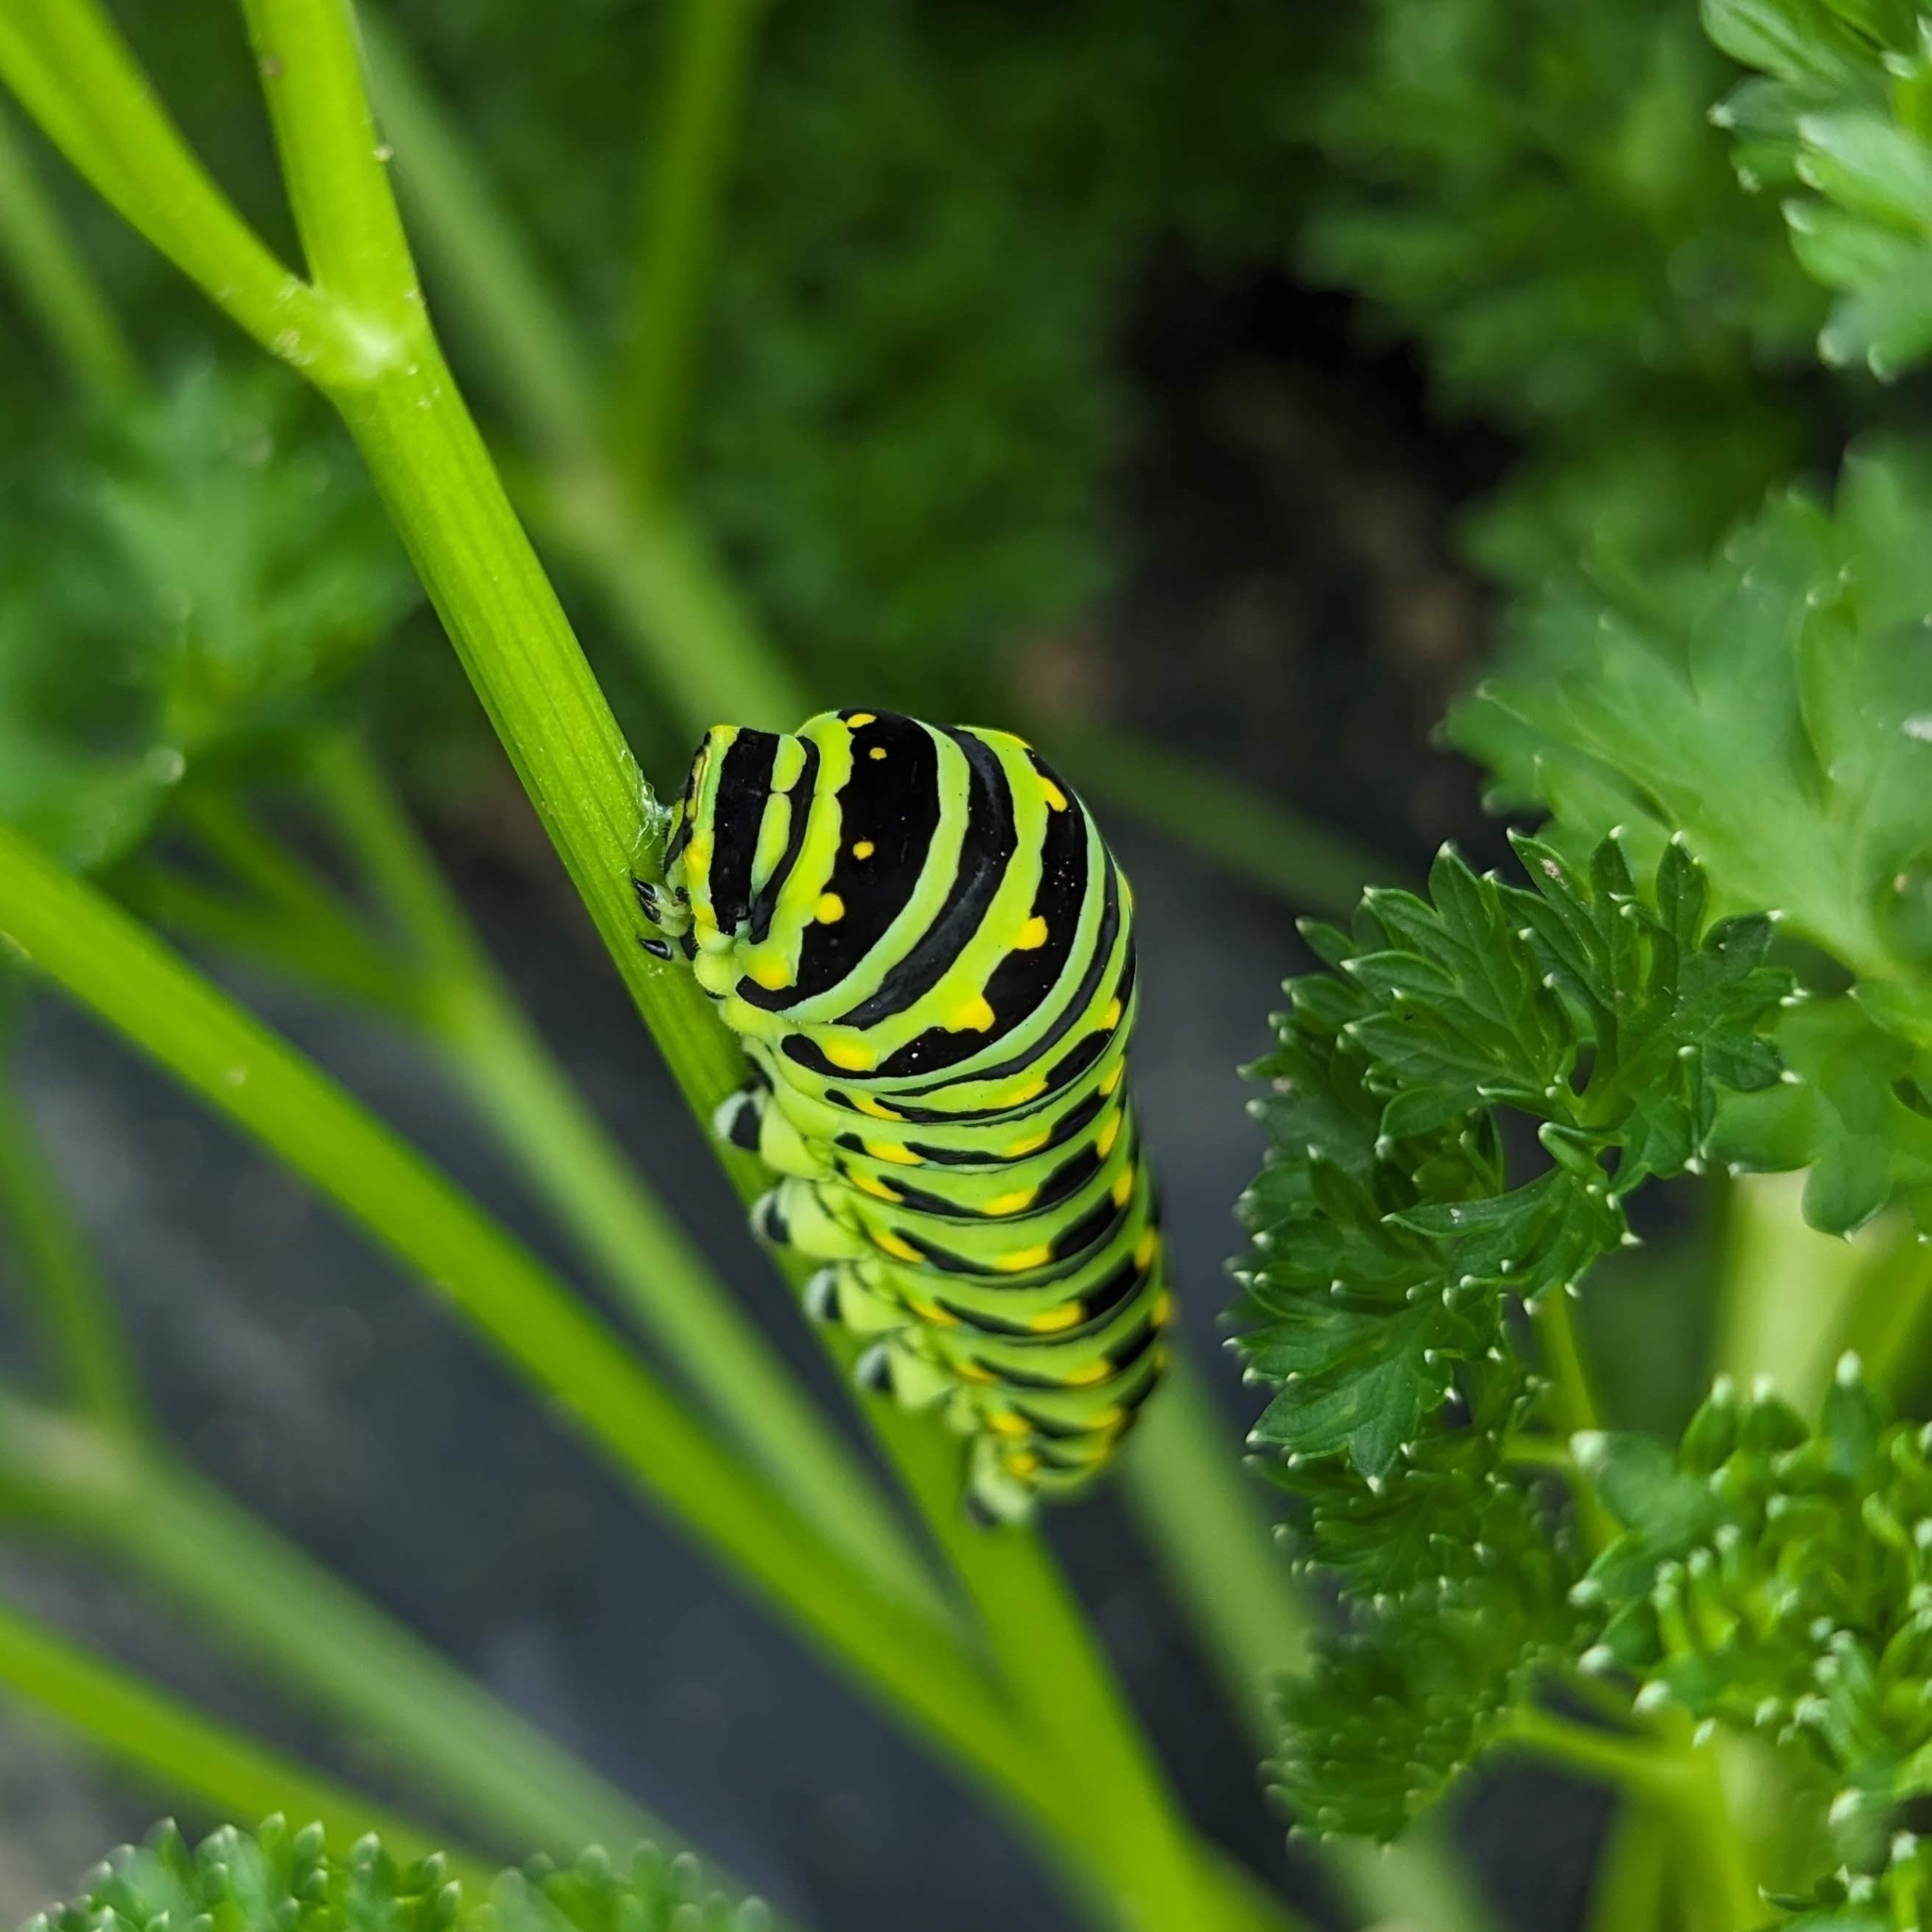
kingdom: Animalia
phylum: Arthropoda
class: Insecta
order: Lepidoptera
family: Papilionidae
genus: Papilio
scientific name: Papilio polyxenes
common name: Black swallowtail
